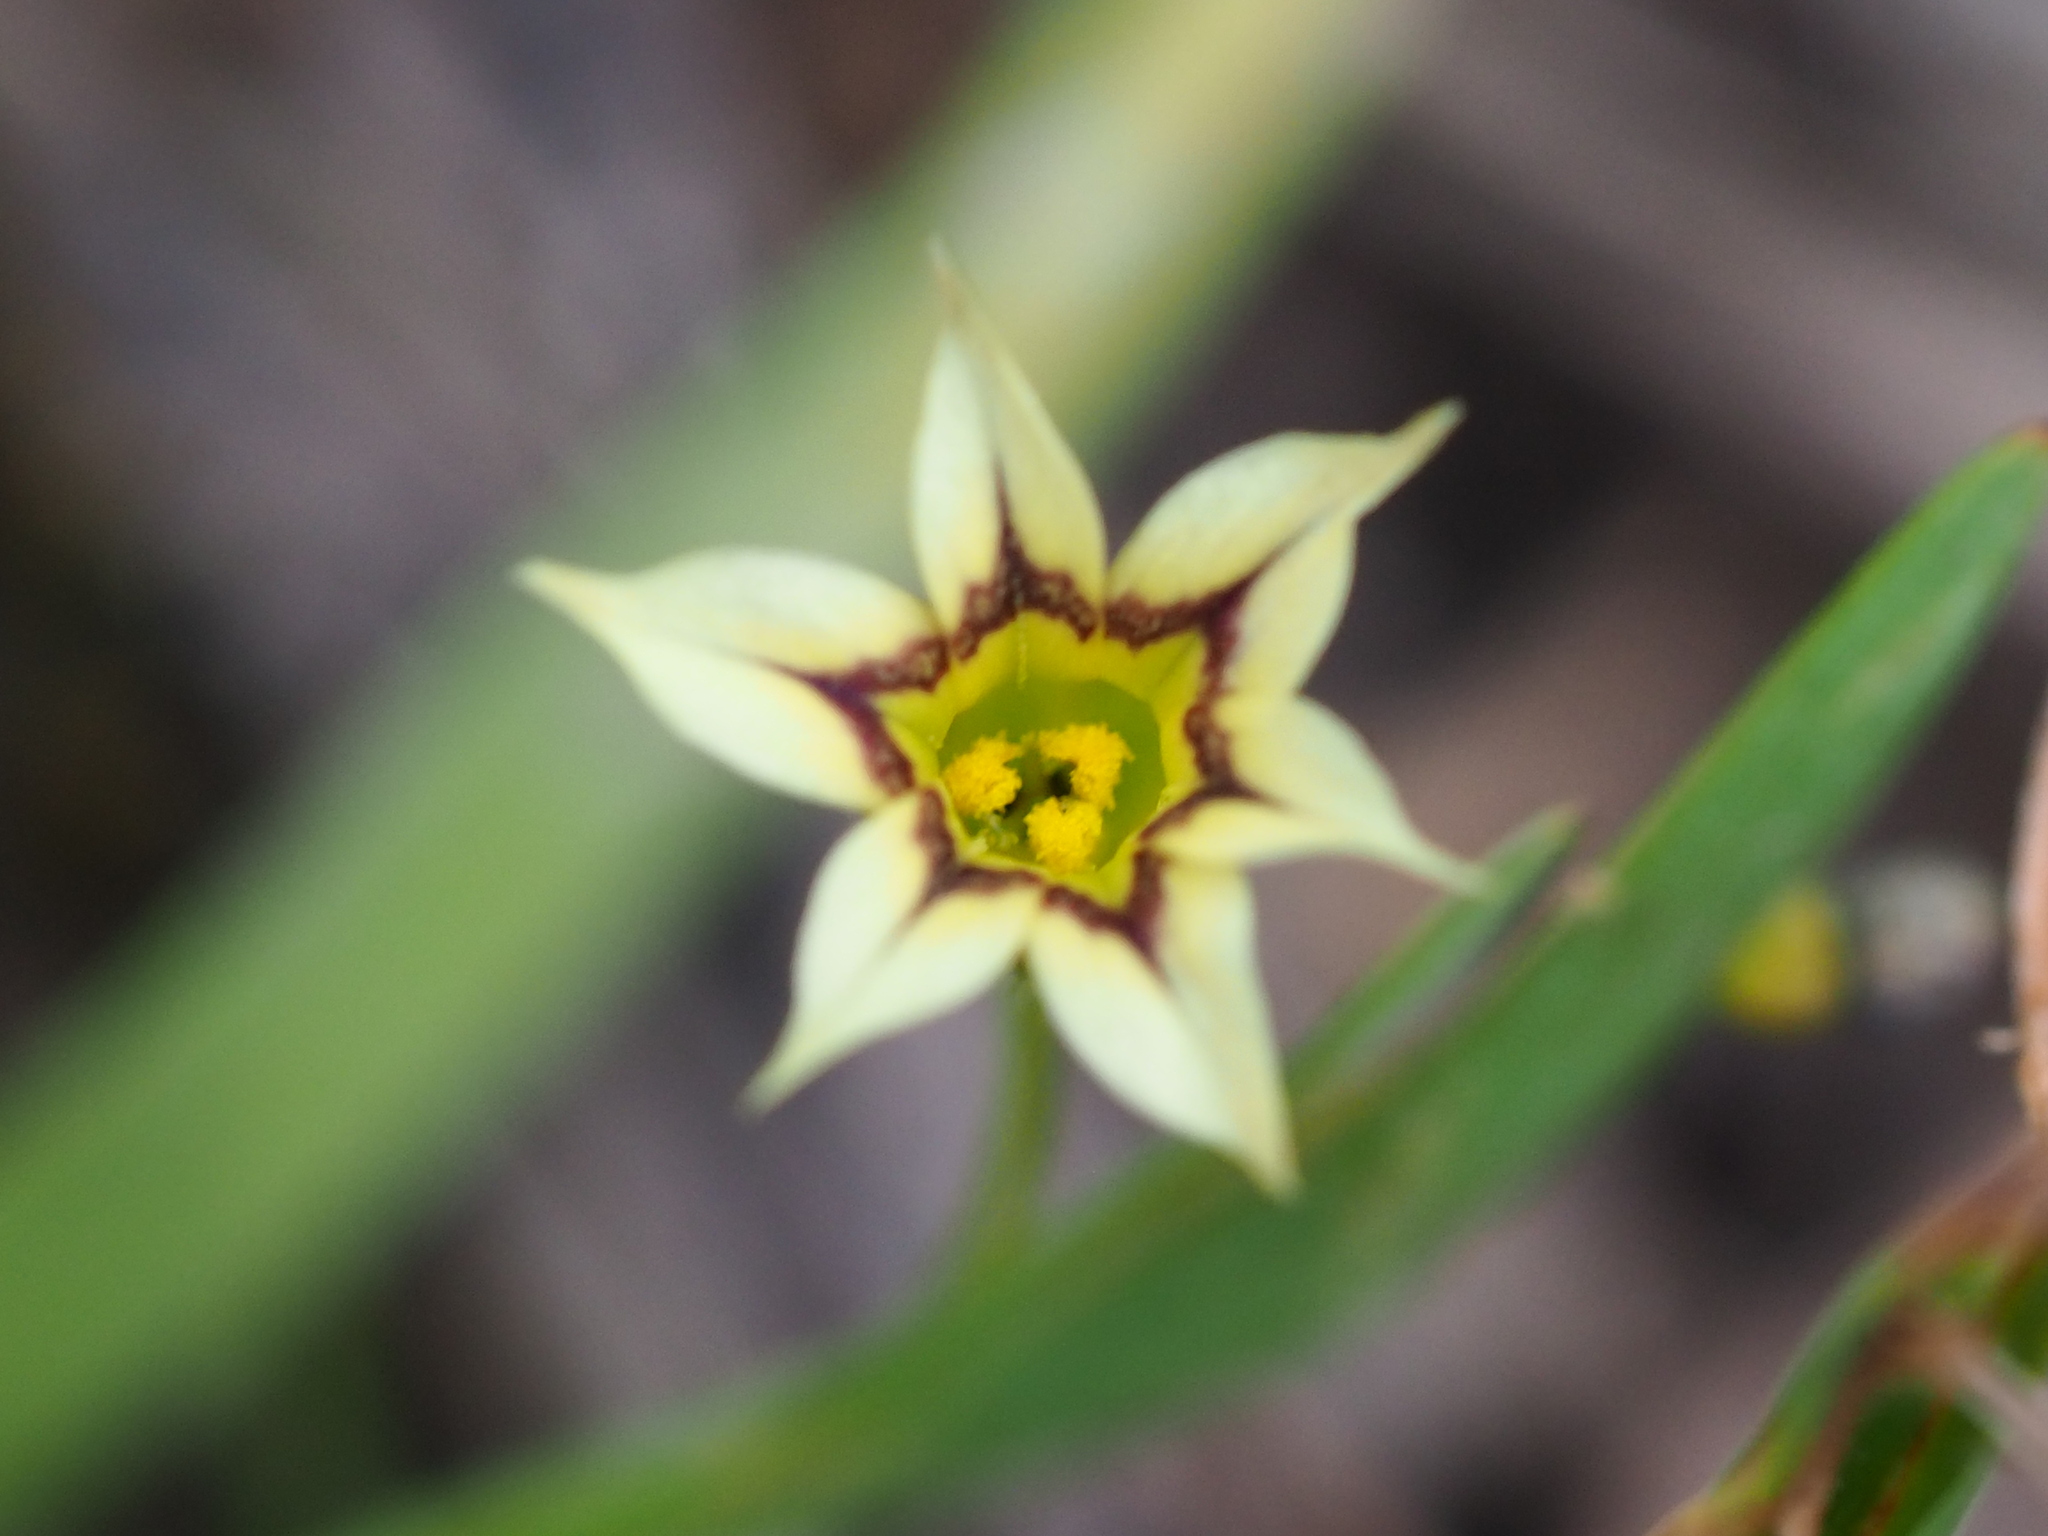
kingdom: Plantae
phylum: Tracheophyta
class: Liliopsida
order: Asparagales
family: Iridaceae
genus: Sisyrinchium
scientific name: Sisyrinchium micranthum
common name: Bermuda pigroot
